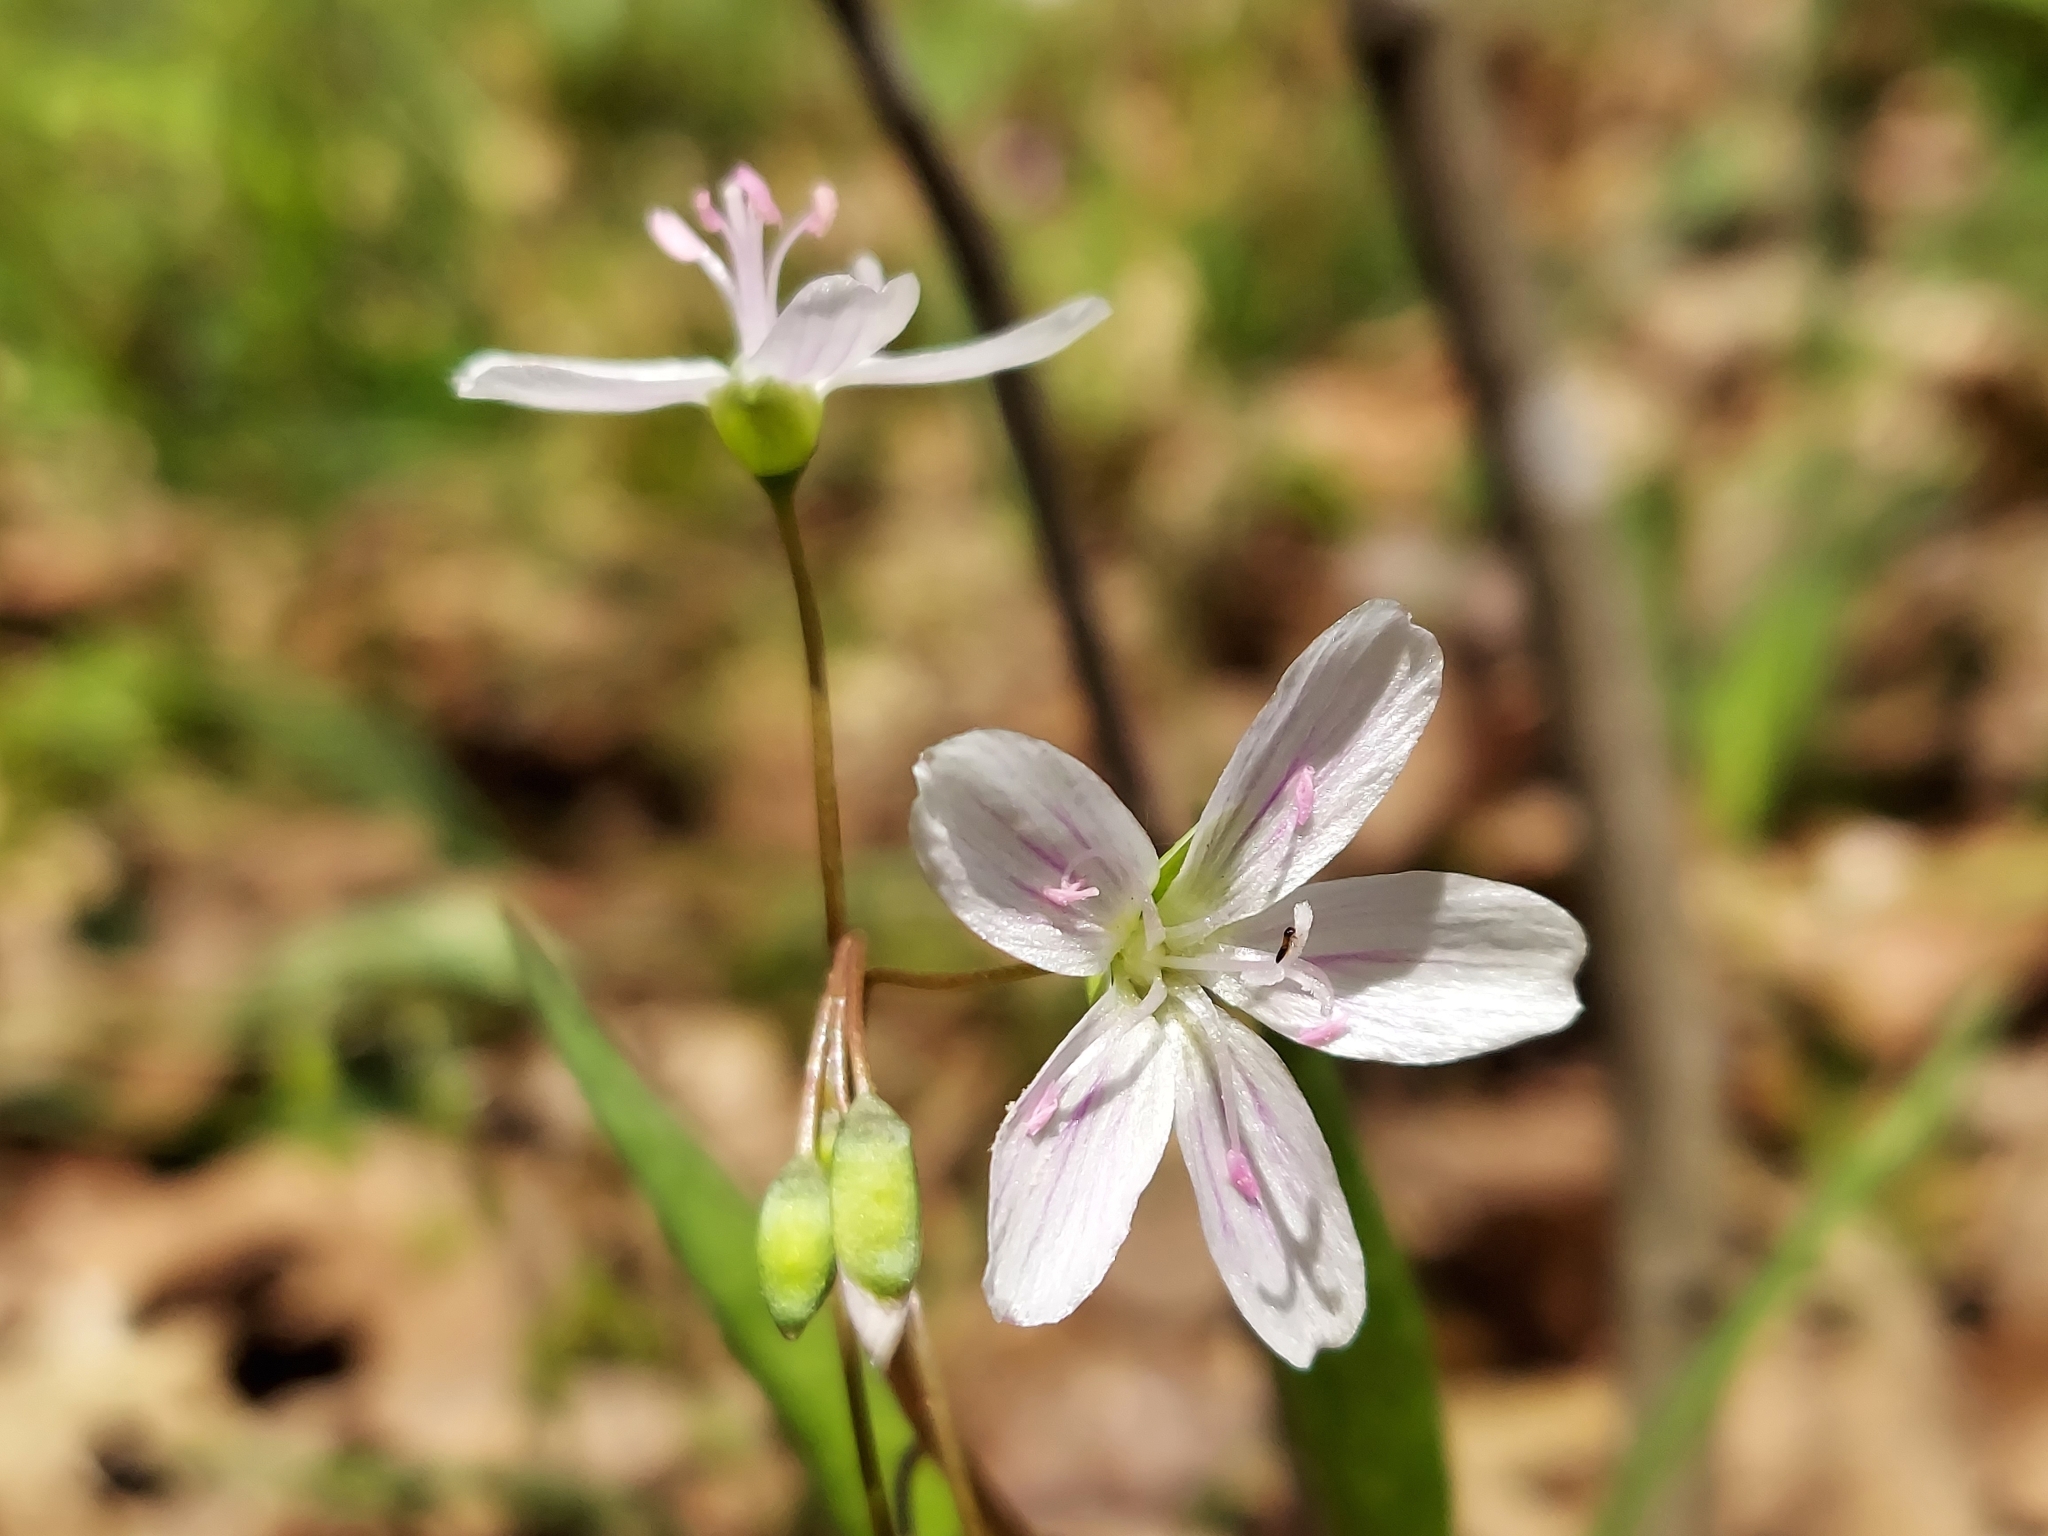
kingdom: Plantae
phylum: Tracheophyta
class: Magnoliopsida
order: Caryophyllales
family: Montiaceae
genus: Claytonia
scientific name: Claytonia virginica
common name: Virginia springbeauty
